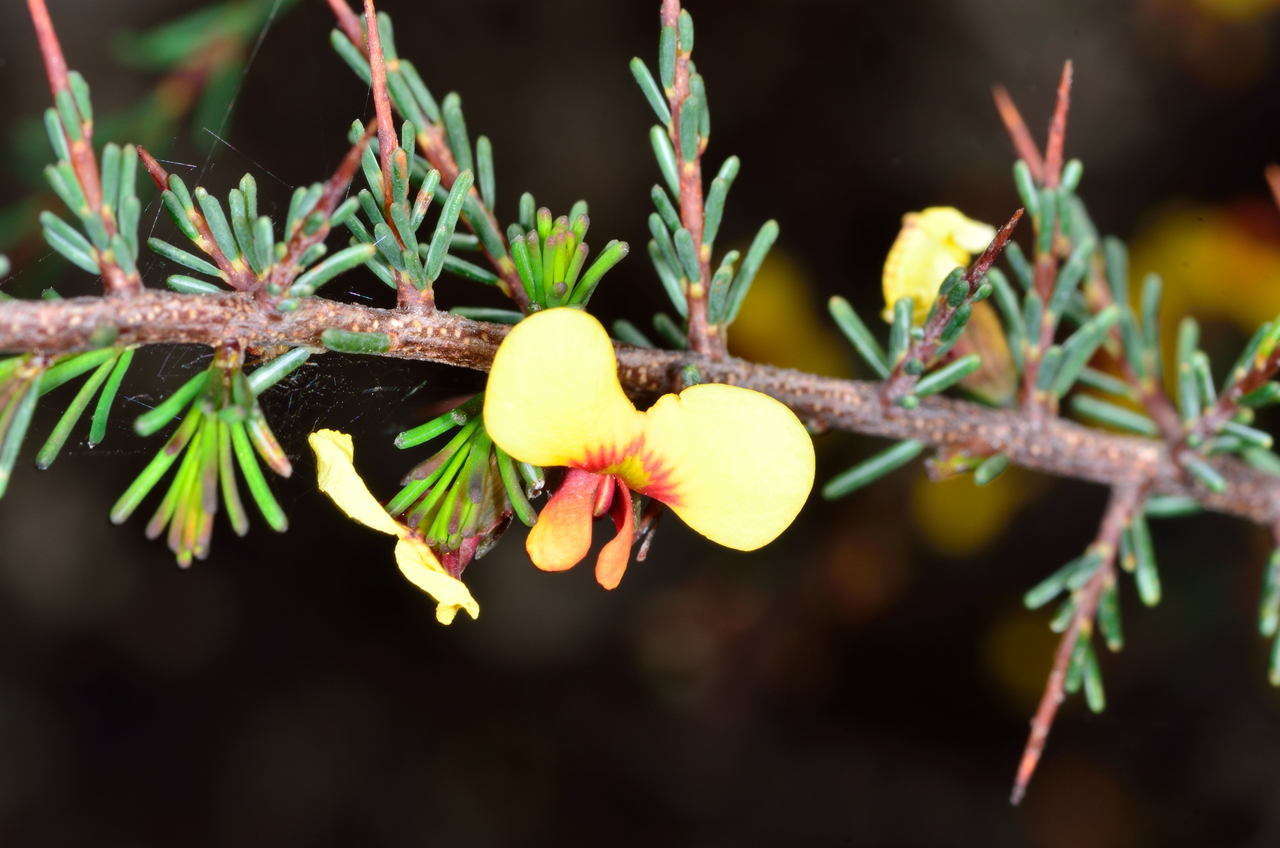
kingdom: Plantae
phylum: Tracheophyta
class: Magnoliopsida
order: Fabales
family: Fabaceae
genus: Dillwynia
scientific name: Dillwynia ramosissima
